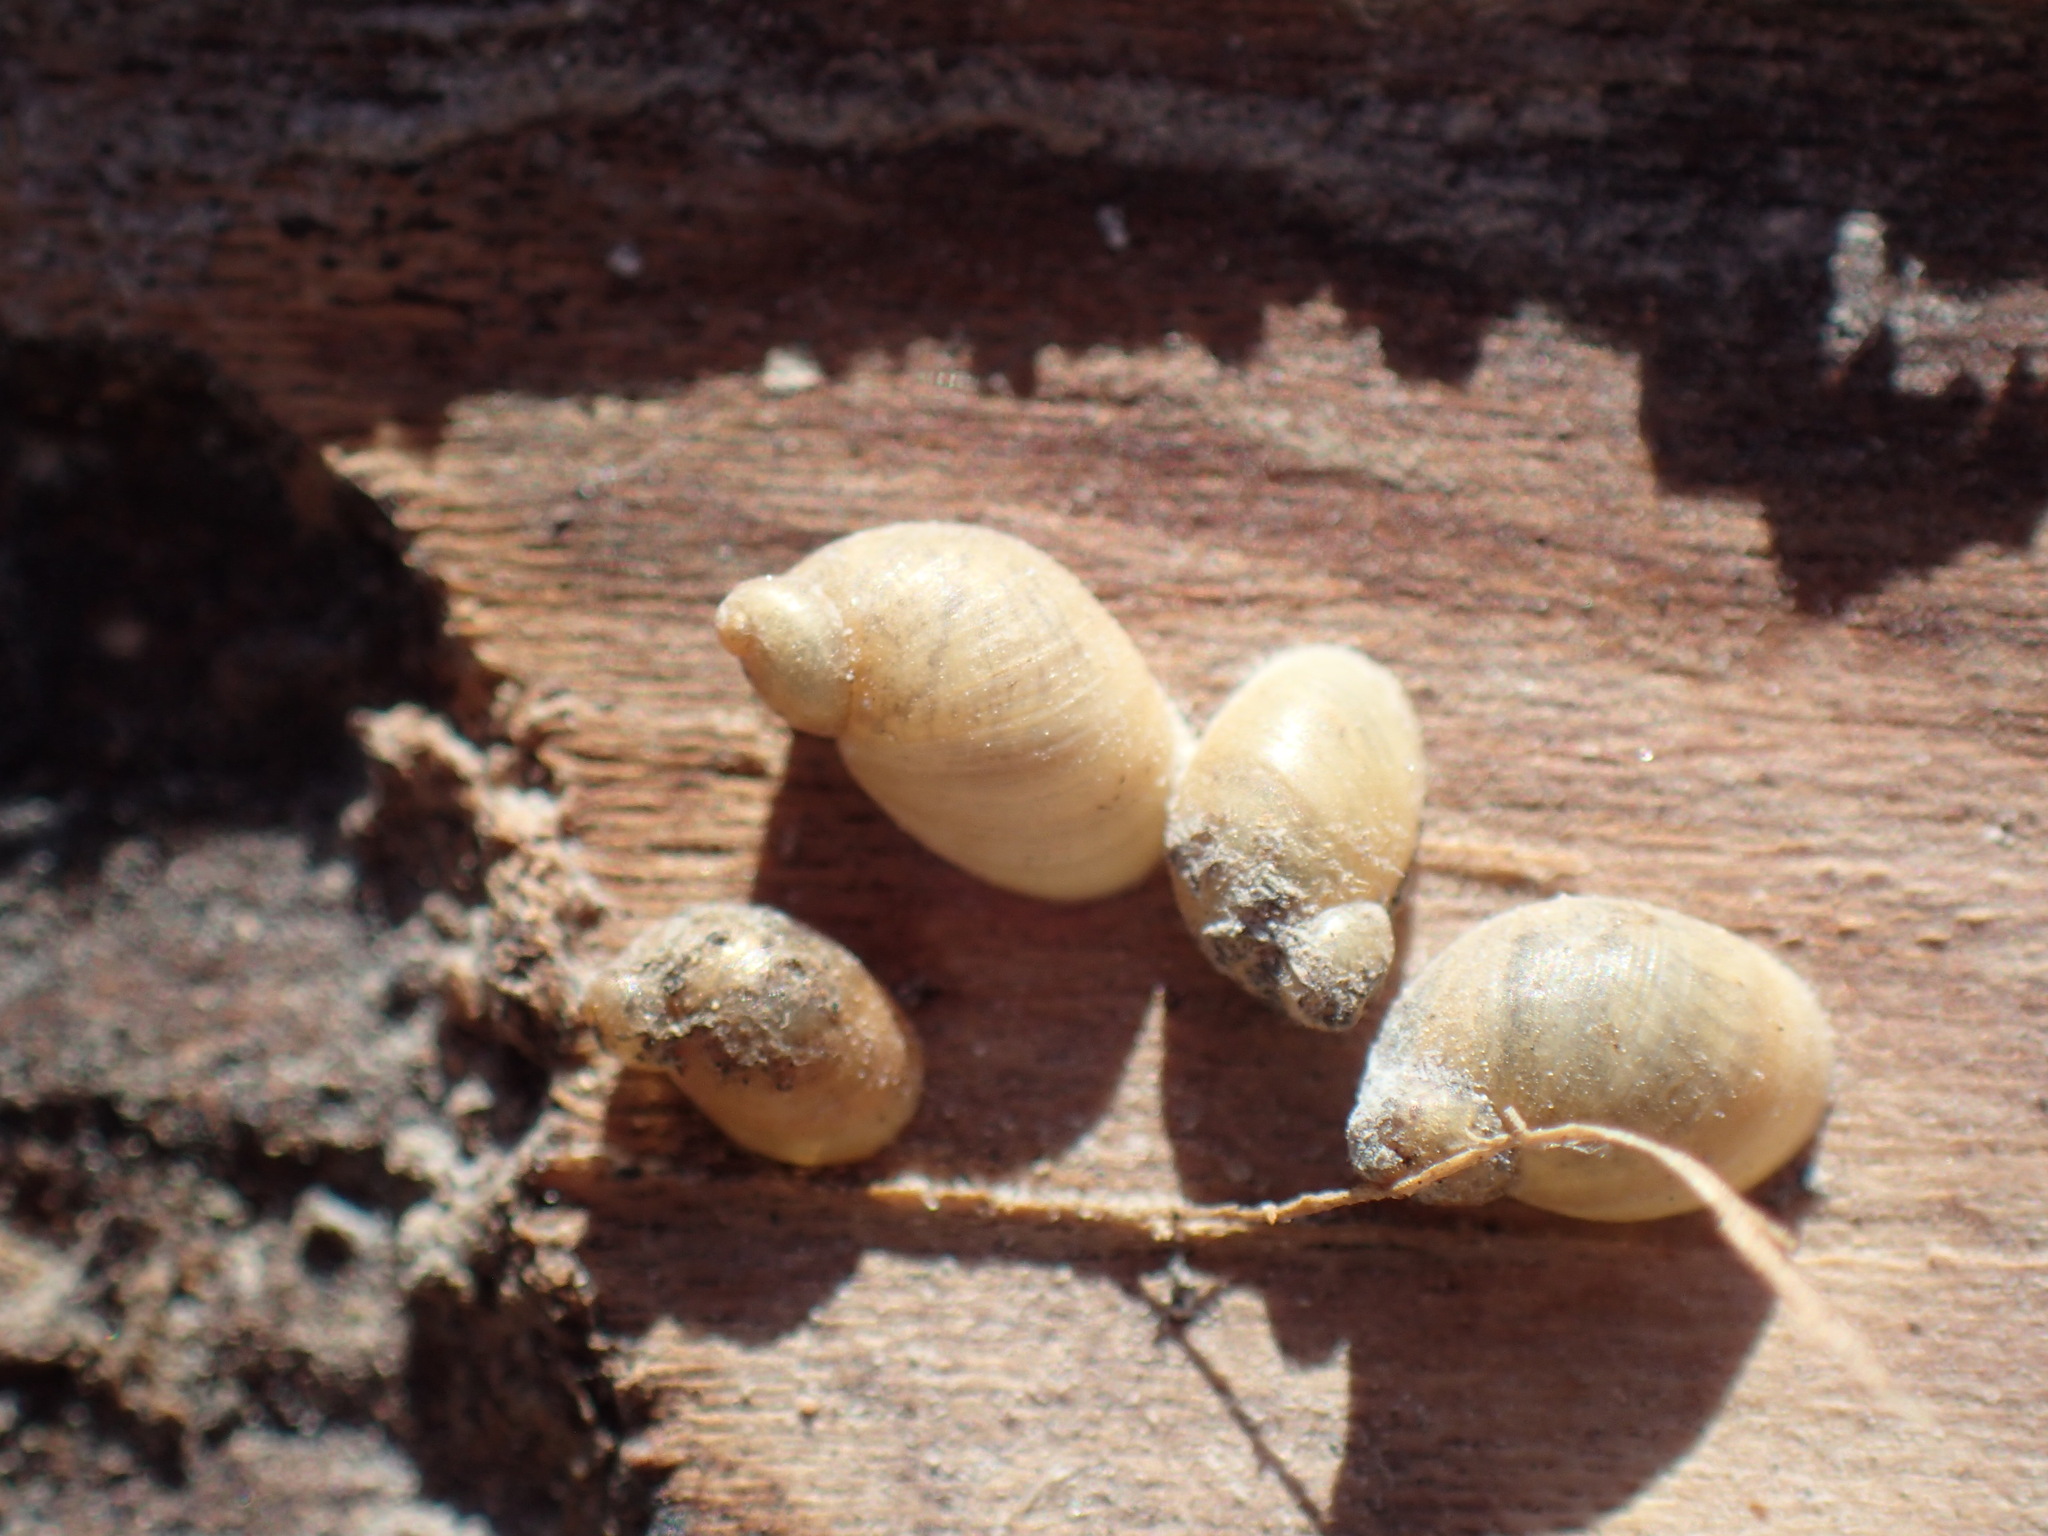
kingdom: Animalia
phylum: Mollusca
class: Gastropoda
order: Stylommatophora
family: Succineidae
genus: Succinea
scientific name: Succinea striata
